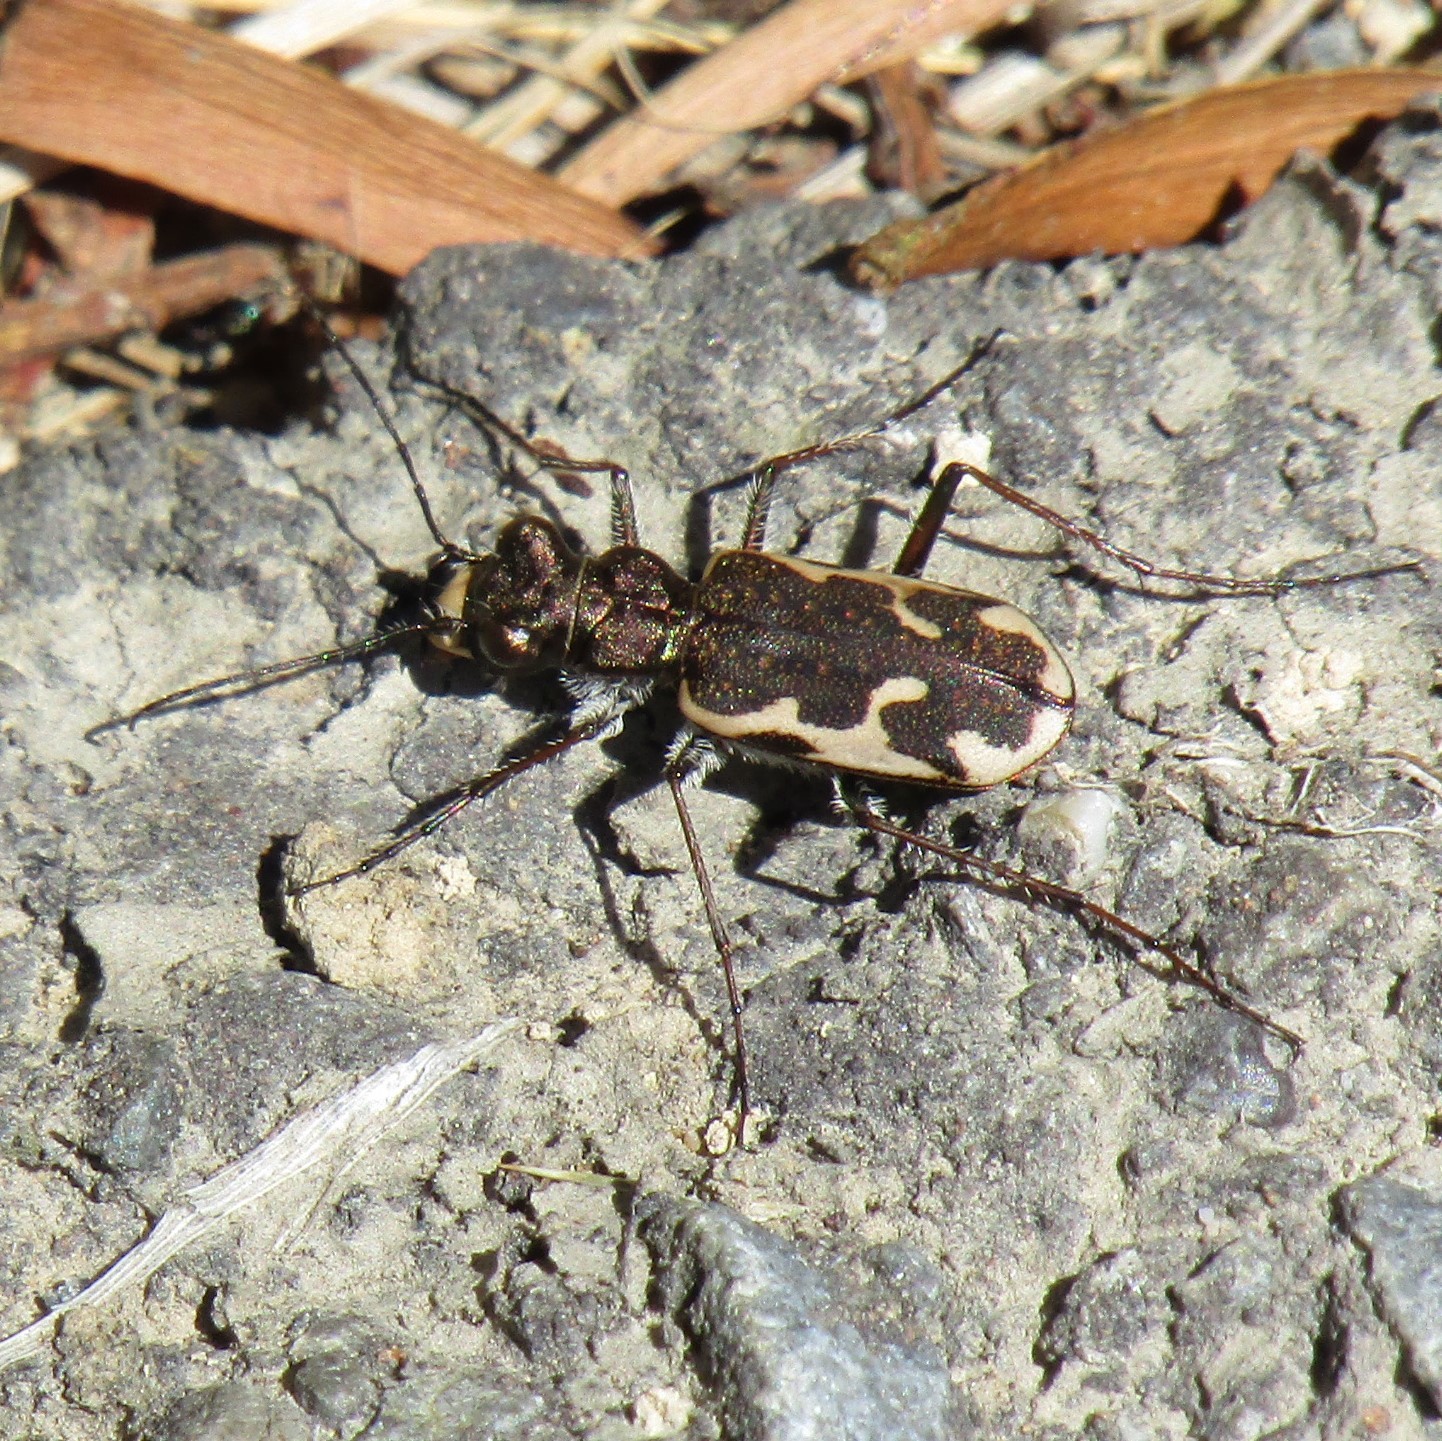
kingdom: Animalia
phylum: Arthropoda
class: Insecta
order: Coleoptera
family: Carabidae
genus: Neocicindela
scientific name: Neocicindela tuberculata
